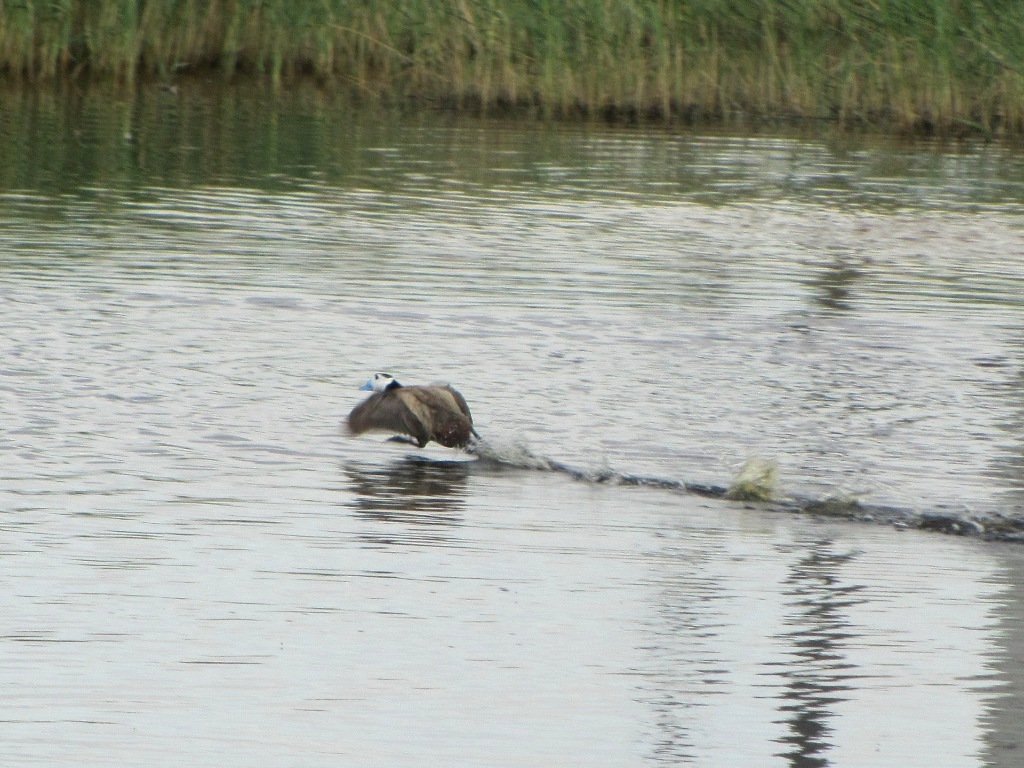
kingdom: Animalia
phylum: Chordata
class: Aves
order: Anseriformes
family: Anatidae
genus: Oxyura
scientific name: Oxyura leucocephala
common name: White-headed duck
